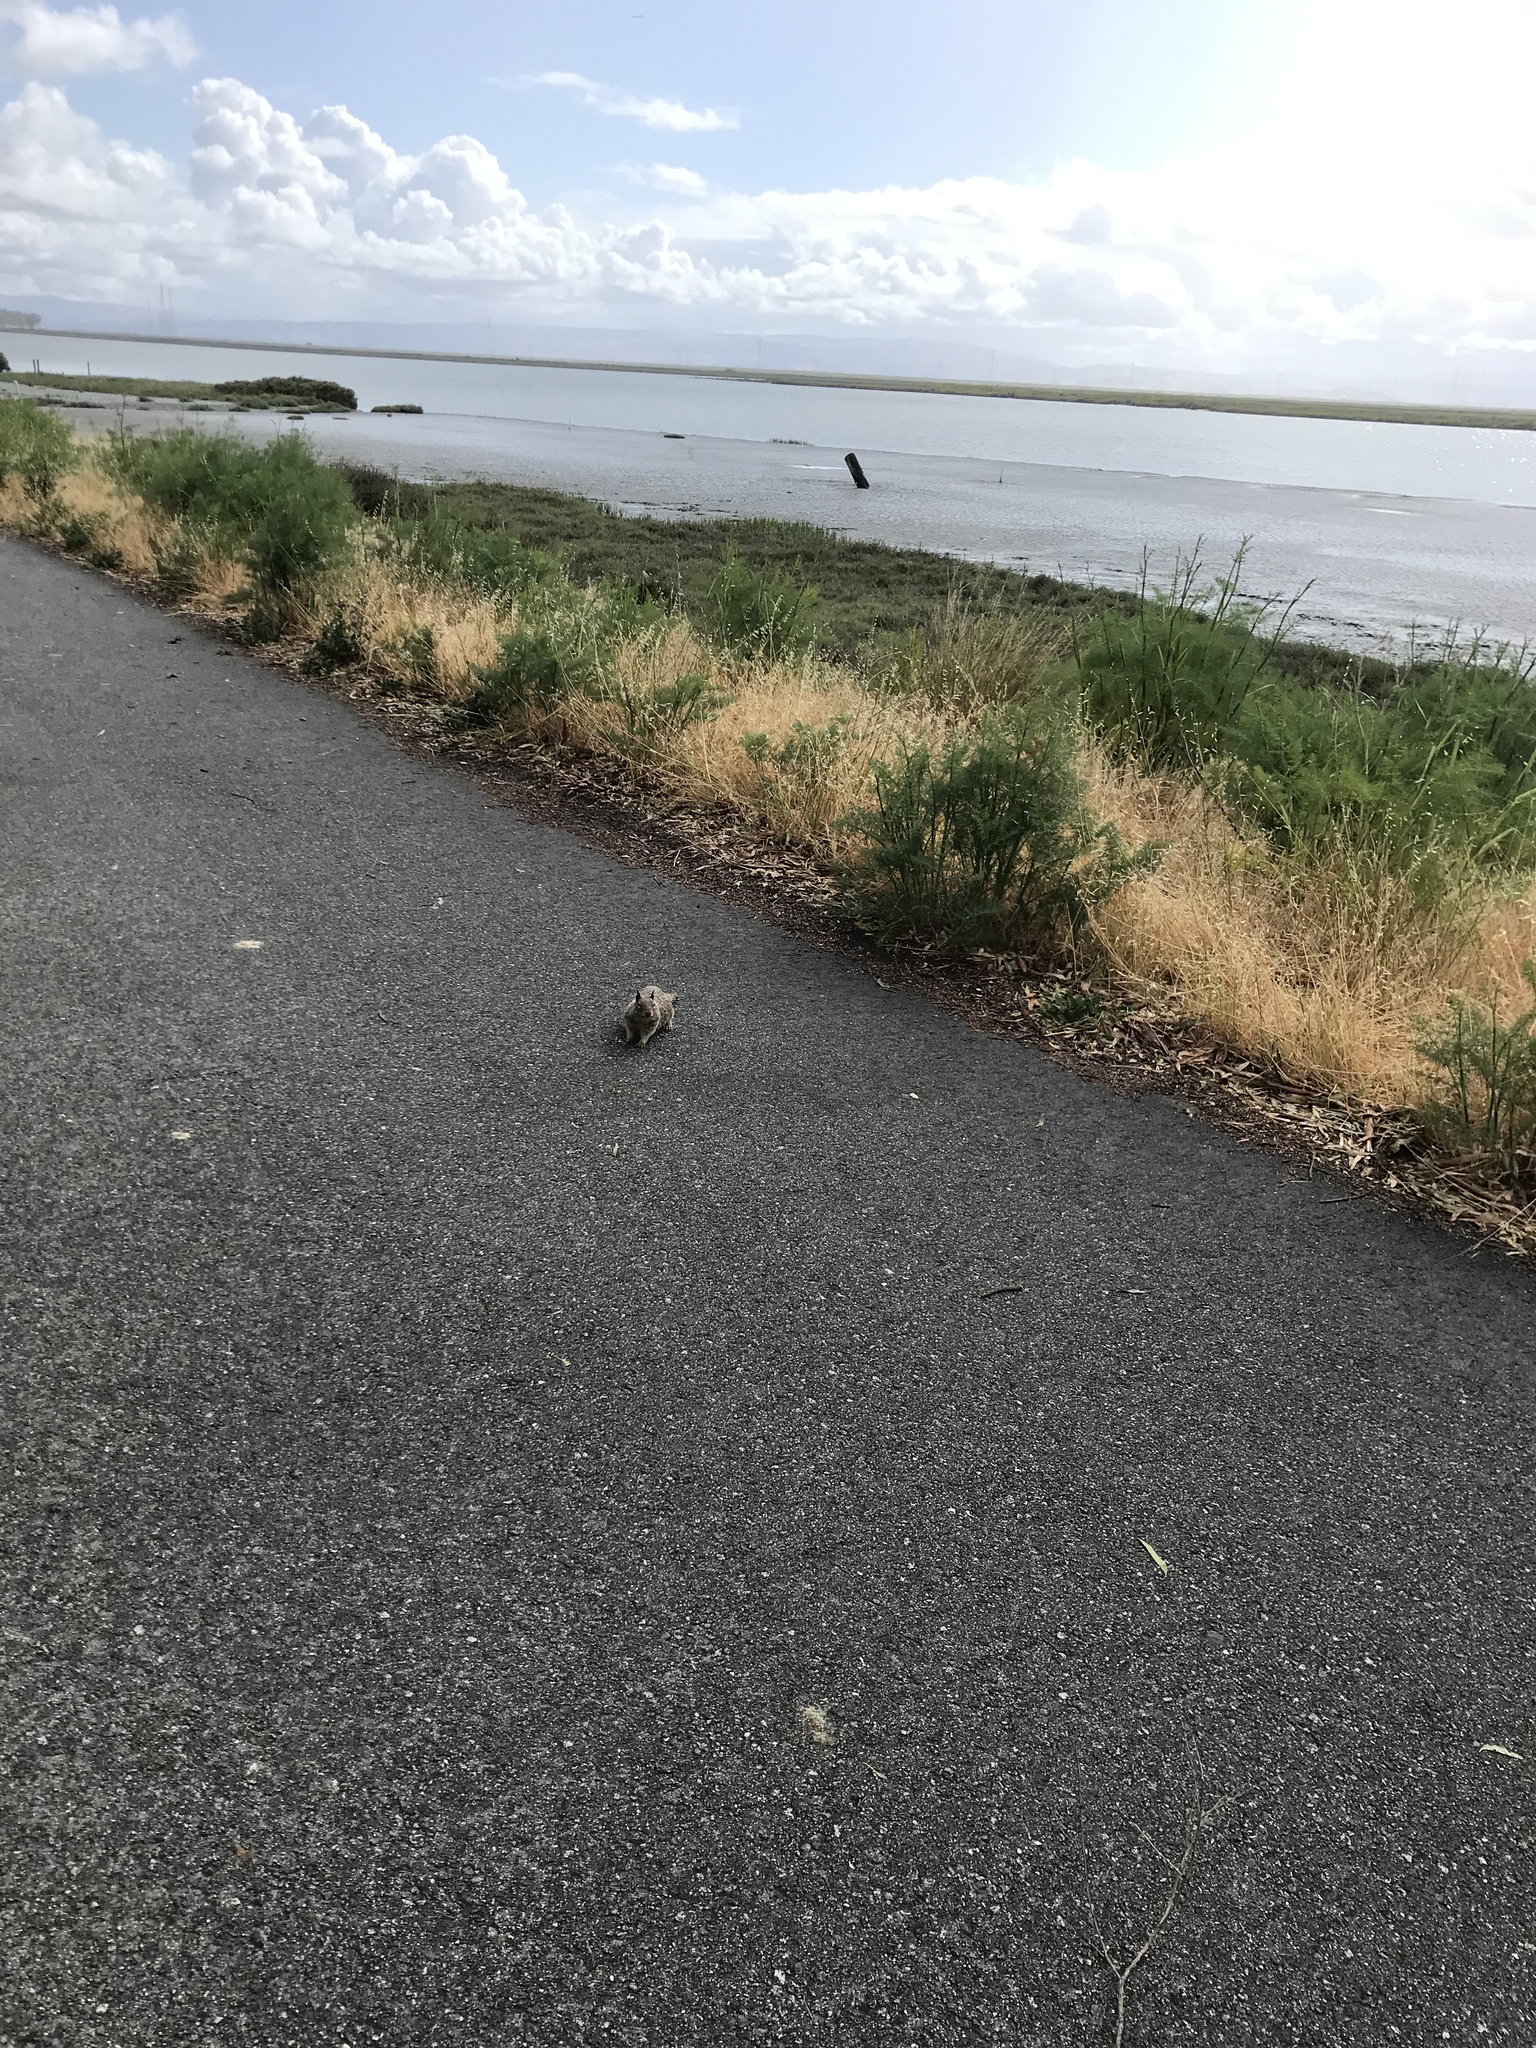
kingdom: Animalia
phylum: Chordata
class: Mammalia
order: Rodentia
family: Sciuridae
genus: Otospermophilus
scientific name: Otospermophilus beecheyi
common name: California ground squirrel
